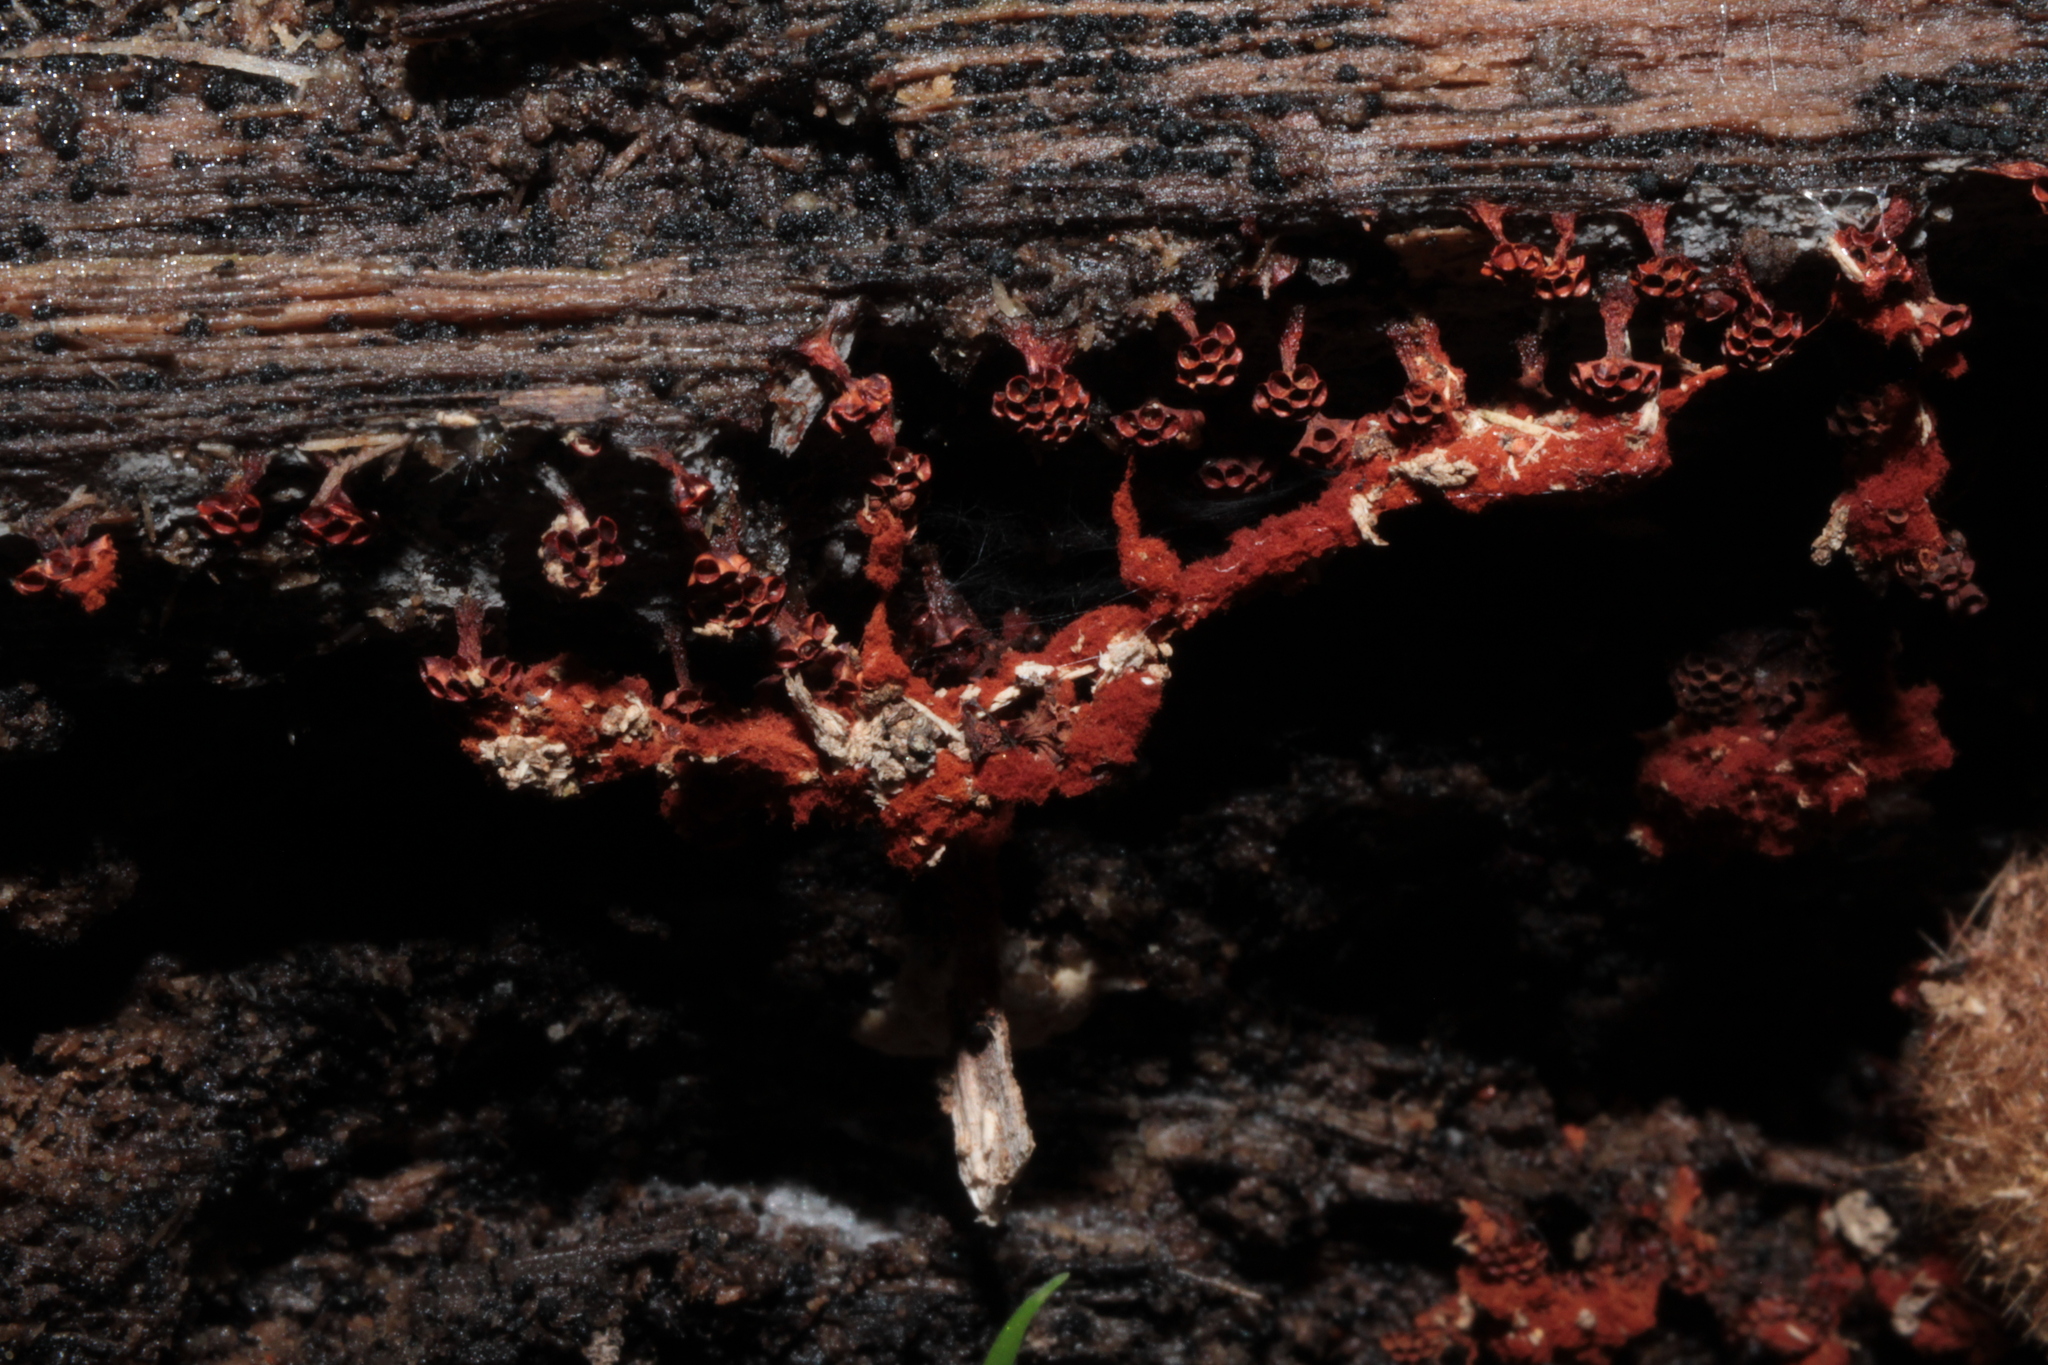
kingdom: Protozoa
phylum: Mycetozoa
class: Myxomycetes
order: Trichiales
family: Trichiaceae
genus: Metatrichia
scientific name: Metatrichia vesparia
